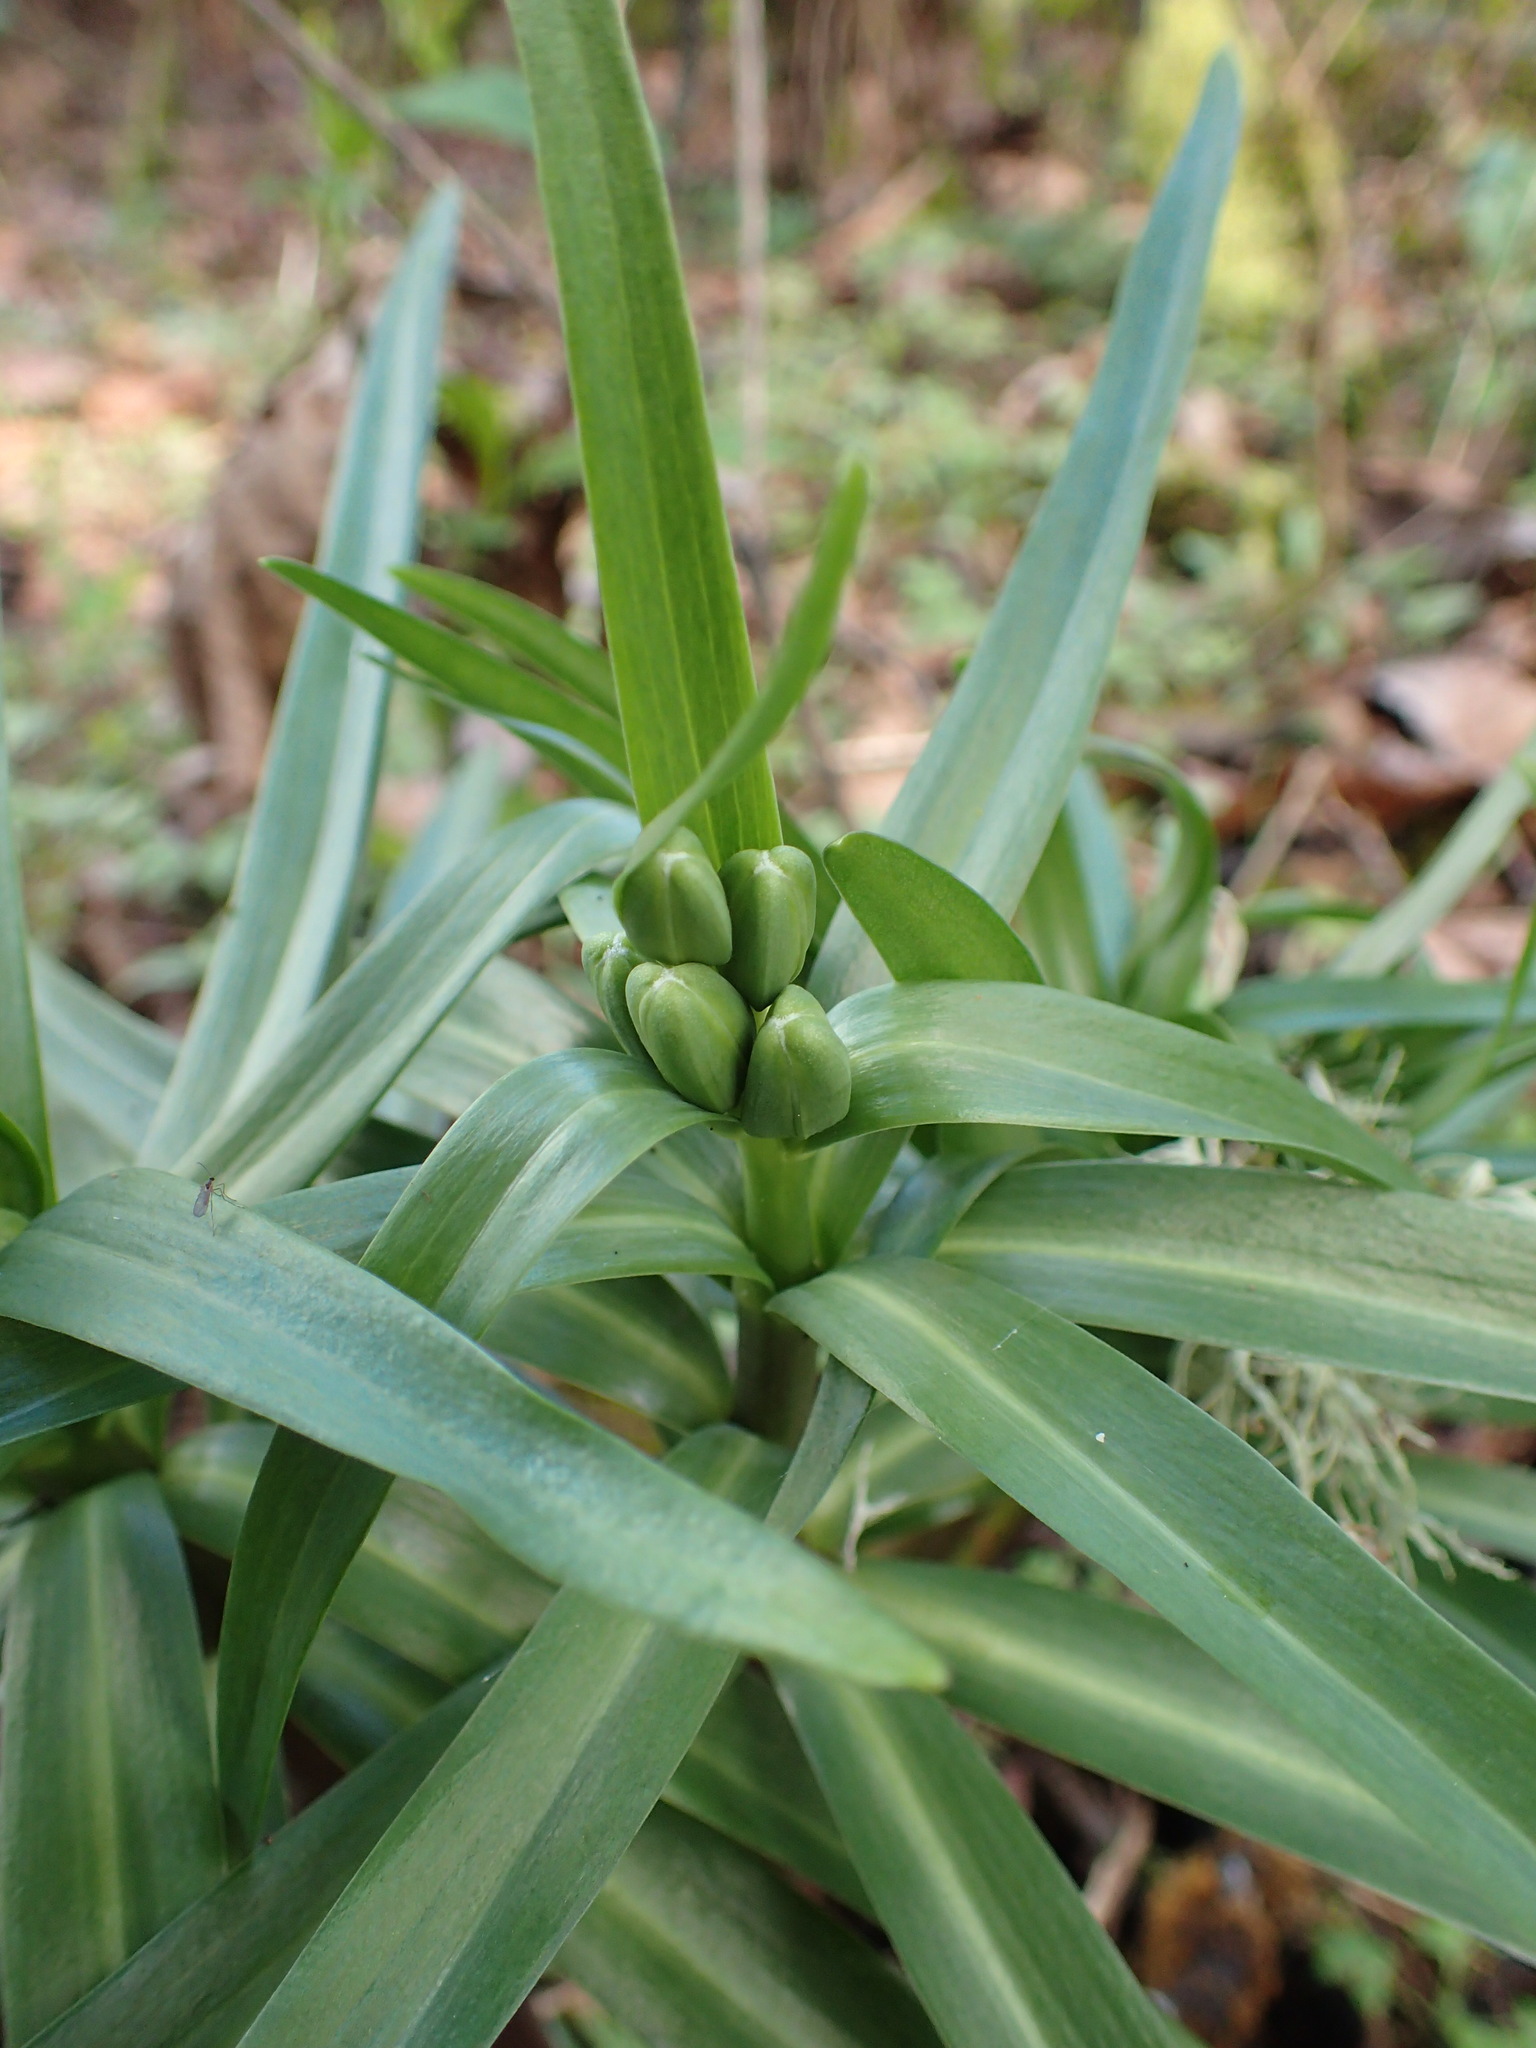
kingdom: Plantae
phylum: Tracheophyta
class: Liliopsida
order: Liliales
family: Liliaceae
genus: Fritillaria
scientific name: Fritillaria affinis
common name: Ojai fritillary
